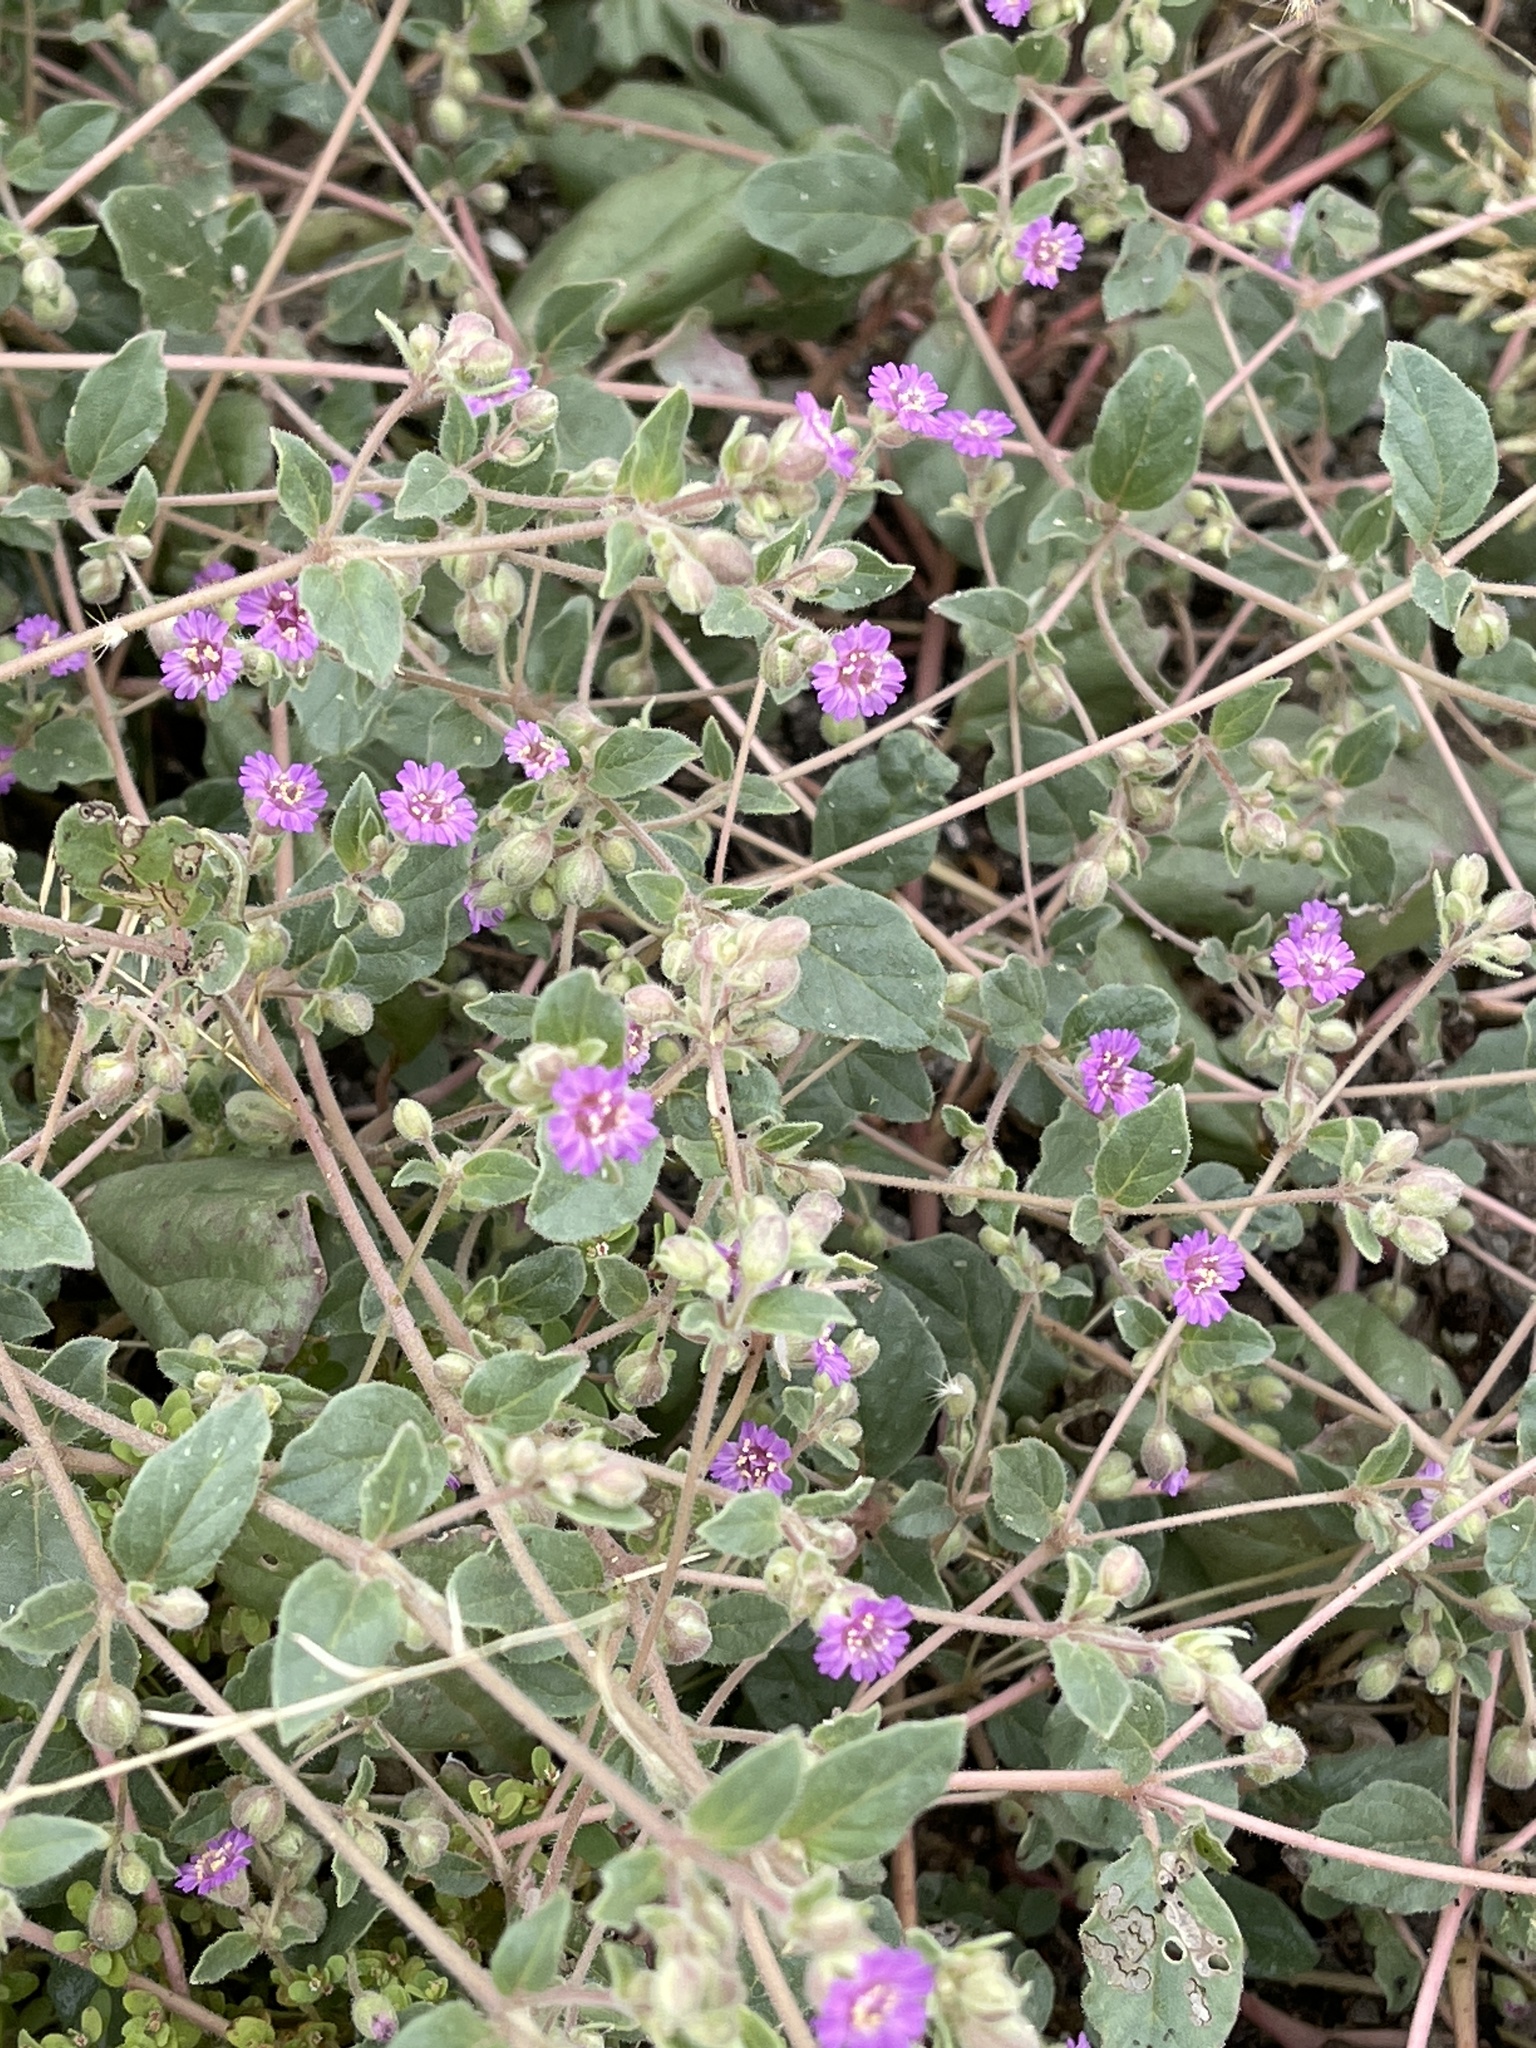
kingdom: Plantae
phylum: Tracheophyta
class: Magnoliopsida
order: Caryophyllales
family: Nyctaginaceae
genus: Allionia
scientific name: Allionia incarnata
